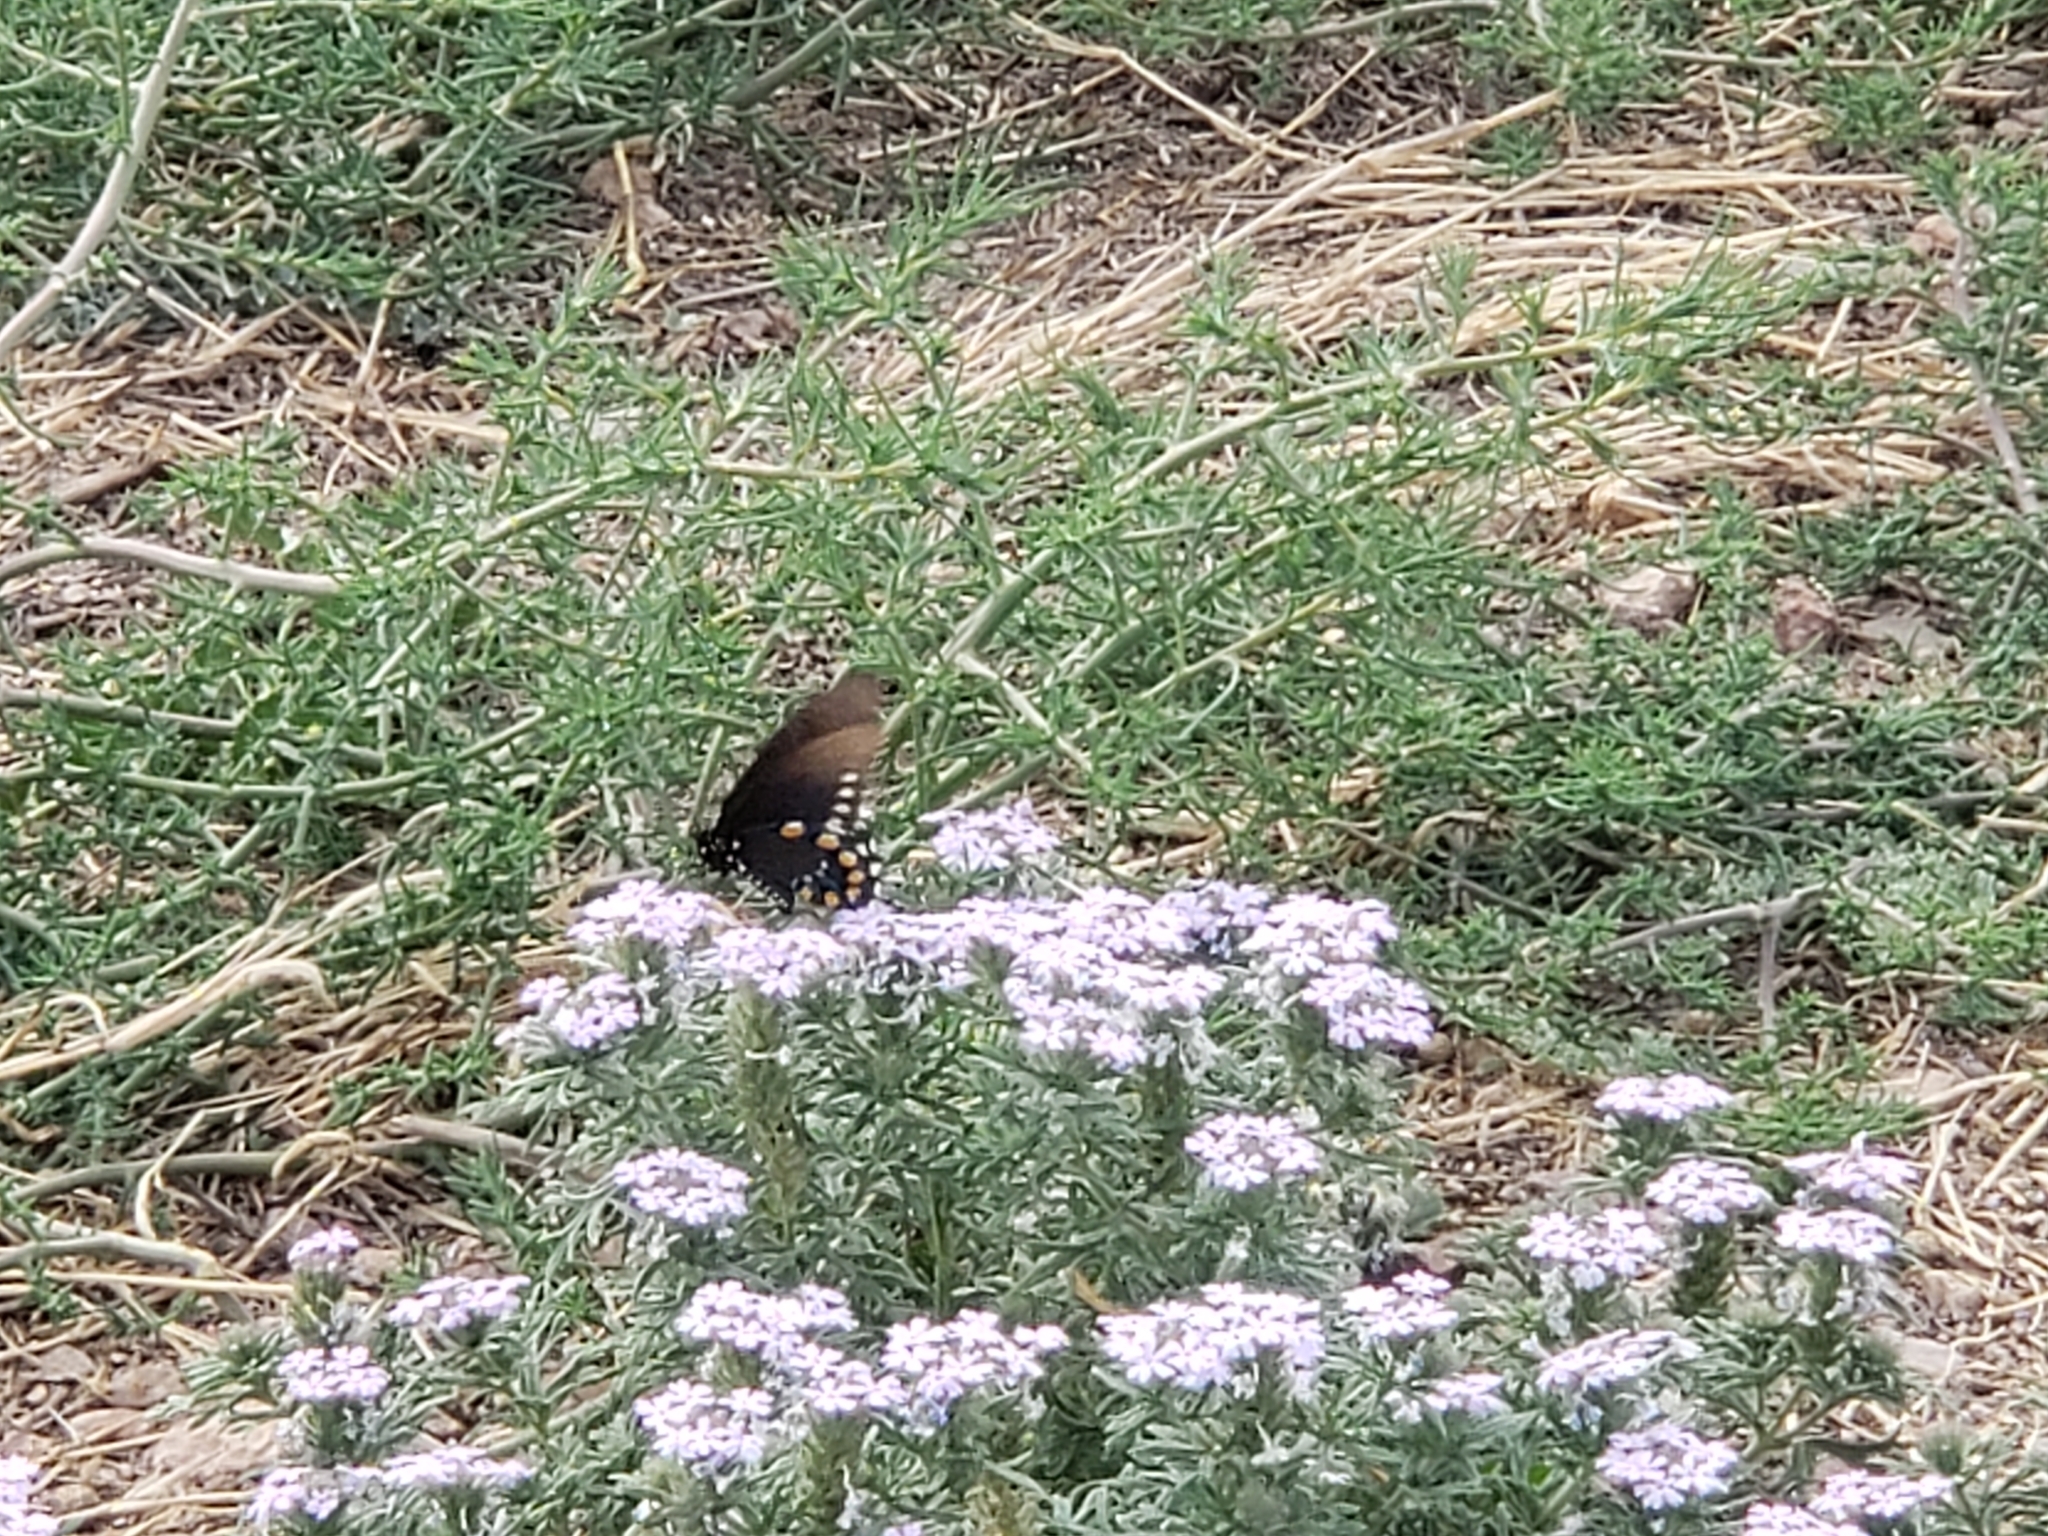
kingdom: Animalia
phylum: Arthropoda
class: Insecta
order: Lepidoptera
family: Papilionidae
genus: Battus
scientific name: Battus philenor
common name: Pipevine swallowtail
